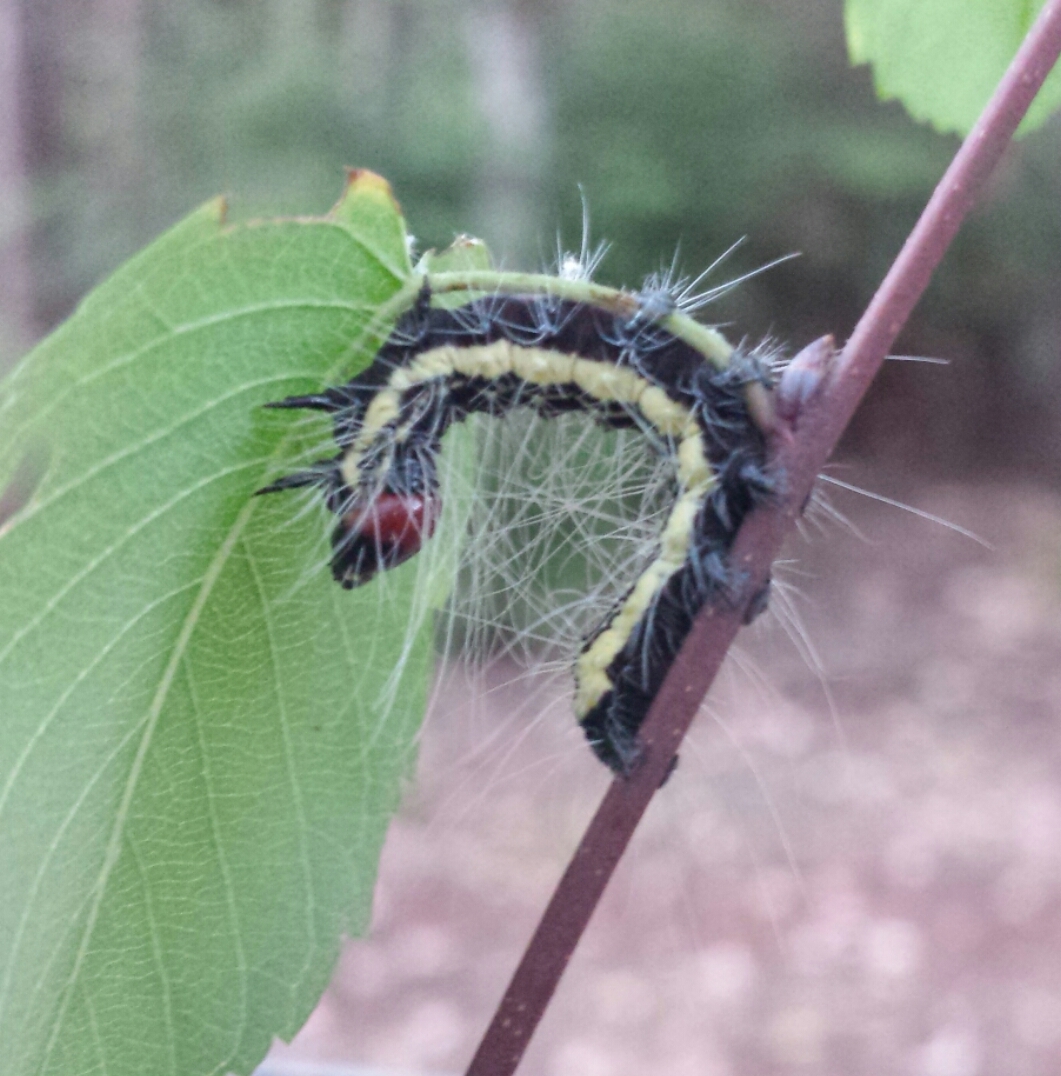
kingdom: Animalia
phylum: Arthropoda
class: Insecta
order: Lepidoptera
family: Noctuidae
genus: Acronicta
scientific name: Acronicta radcliffei
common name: Radcliffe's dagger
